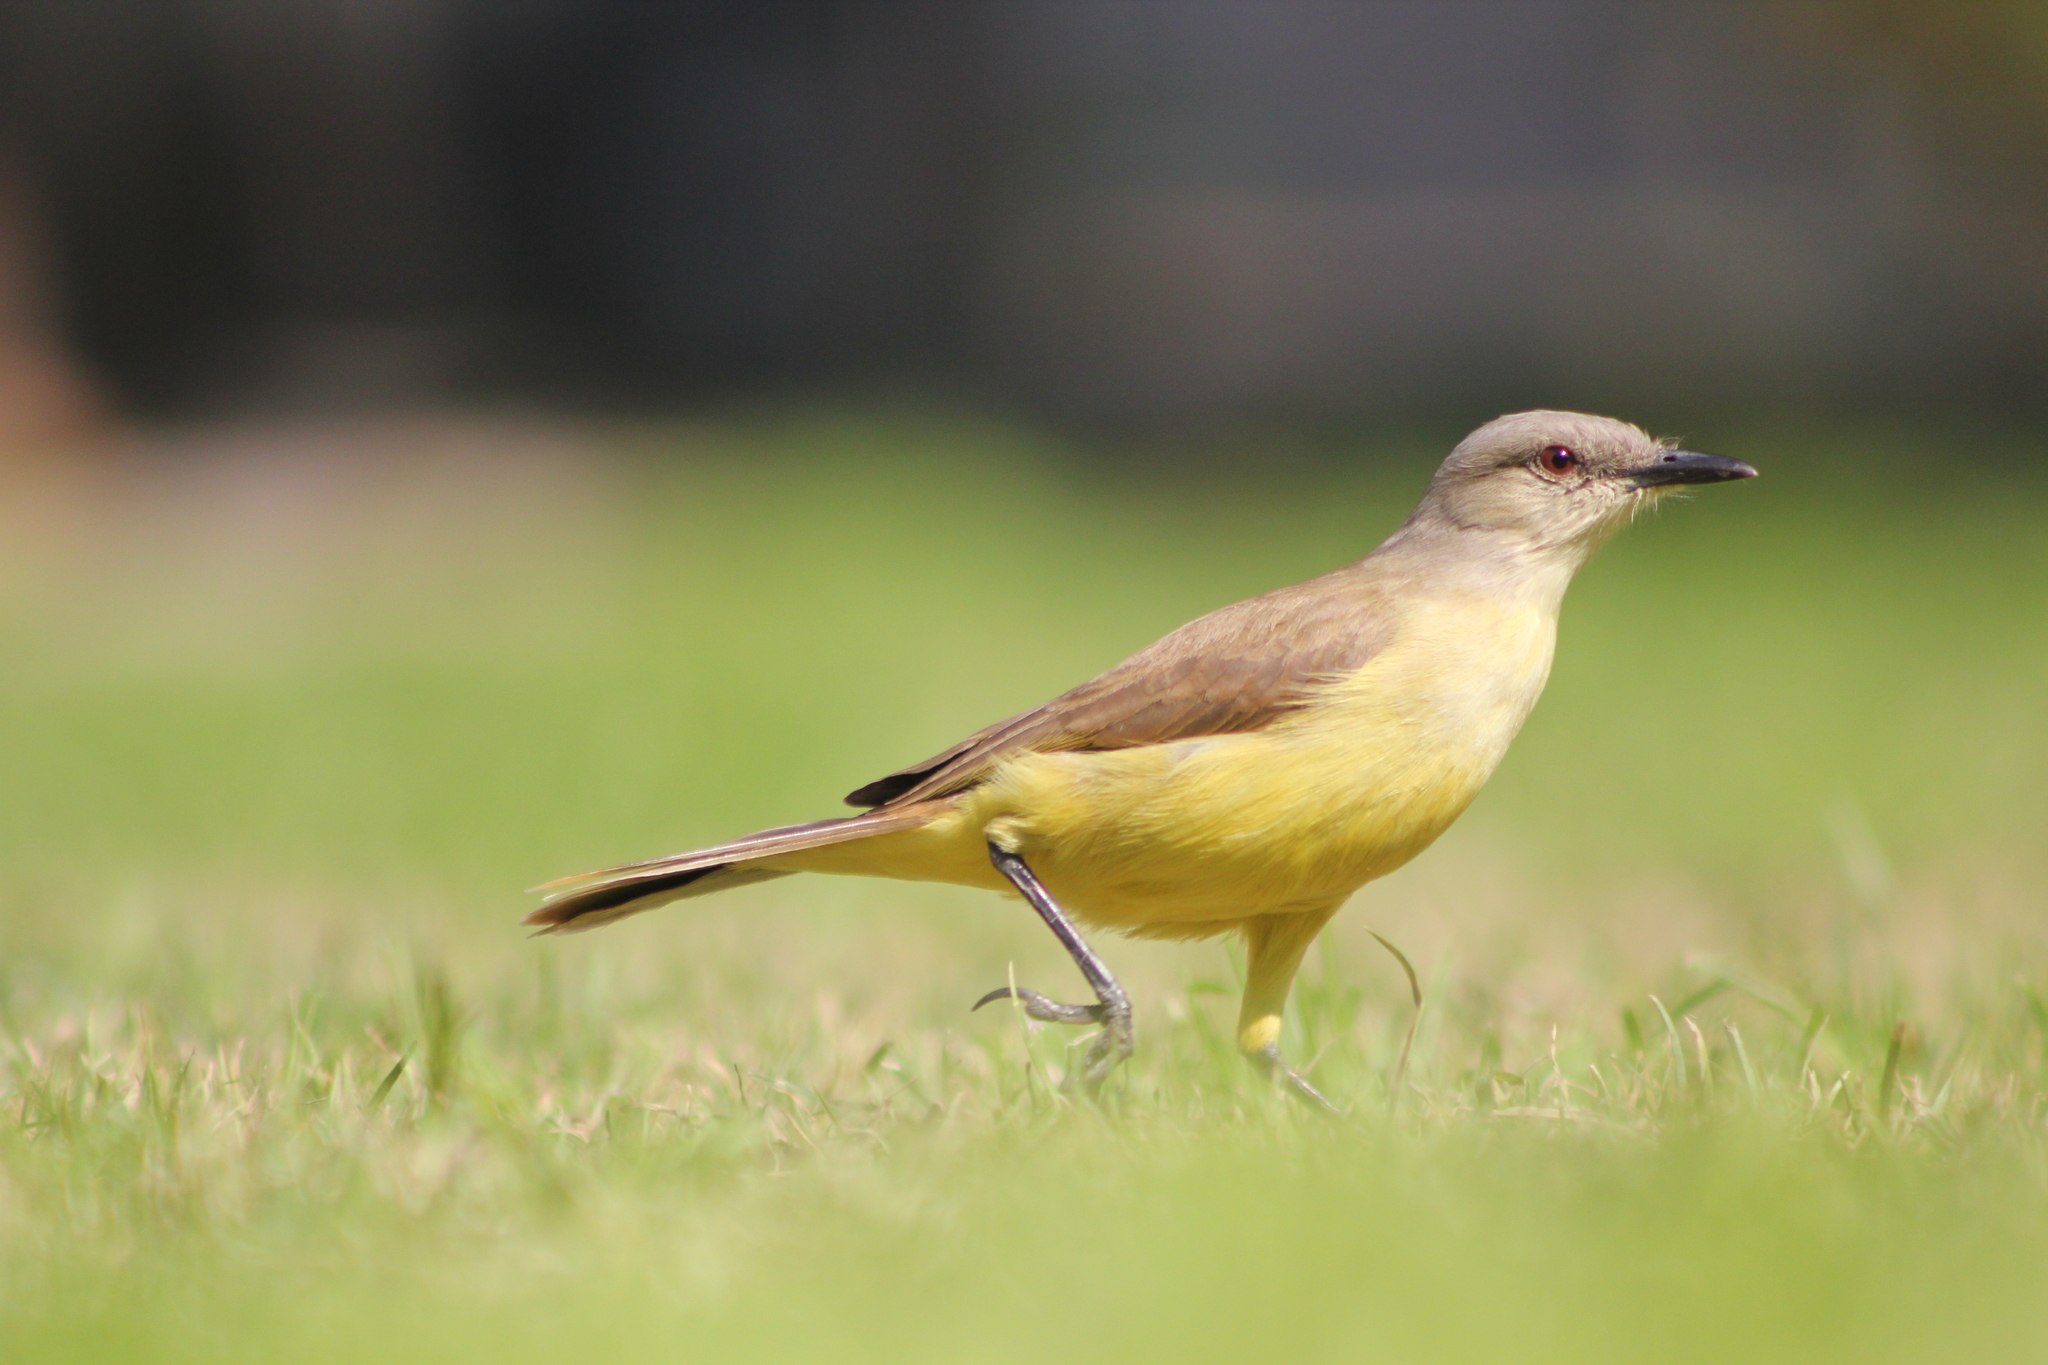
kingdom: Animalia
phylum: Chordata
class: Aves
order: Passeriformes
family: Tyrannidae
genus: Machetornis
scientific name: Machetornis rixosa
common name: Cattle tyrant
